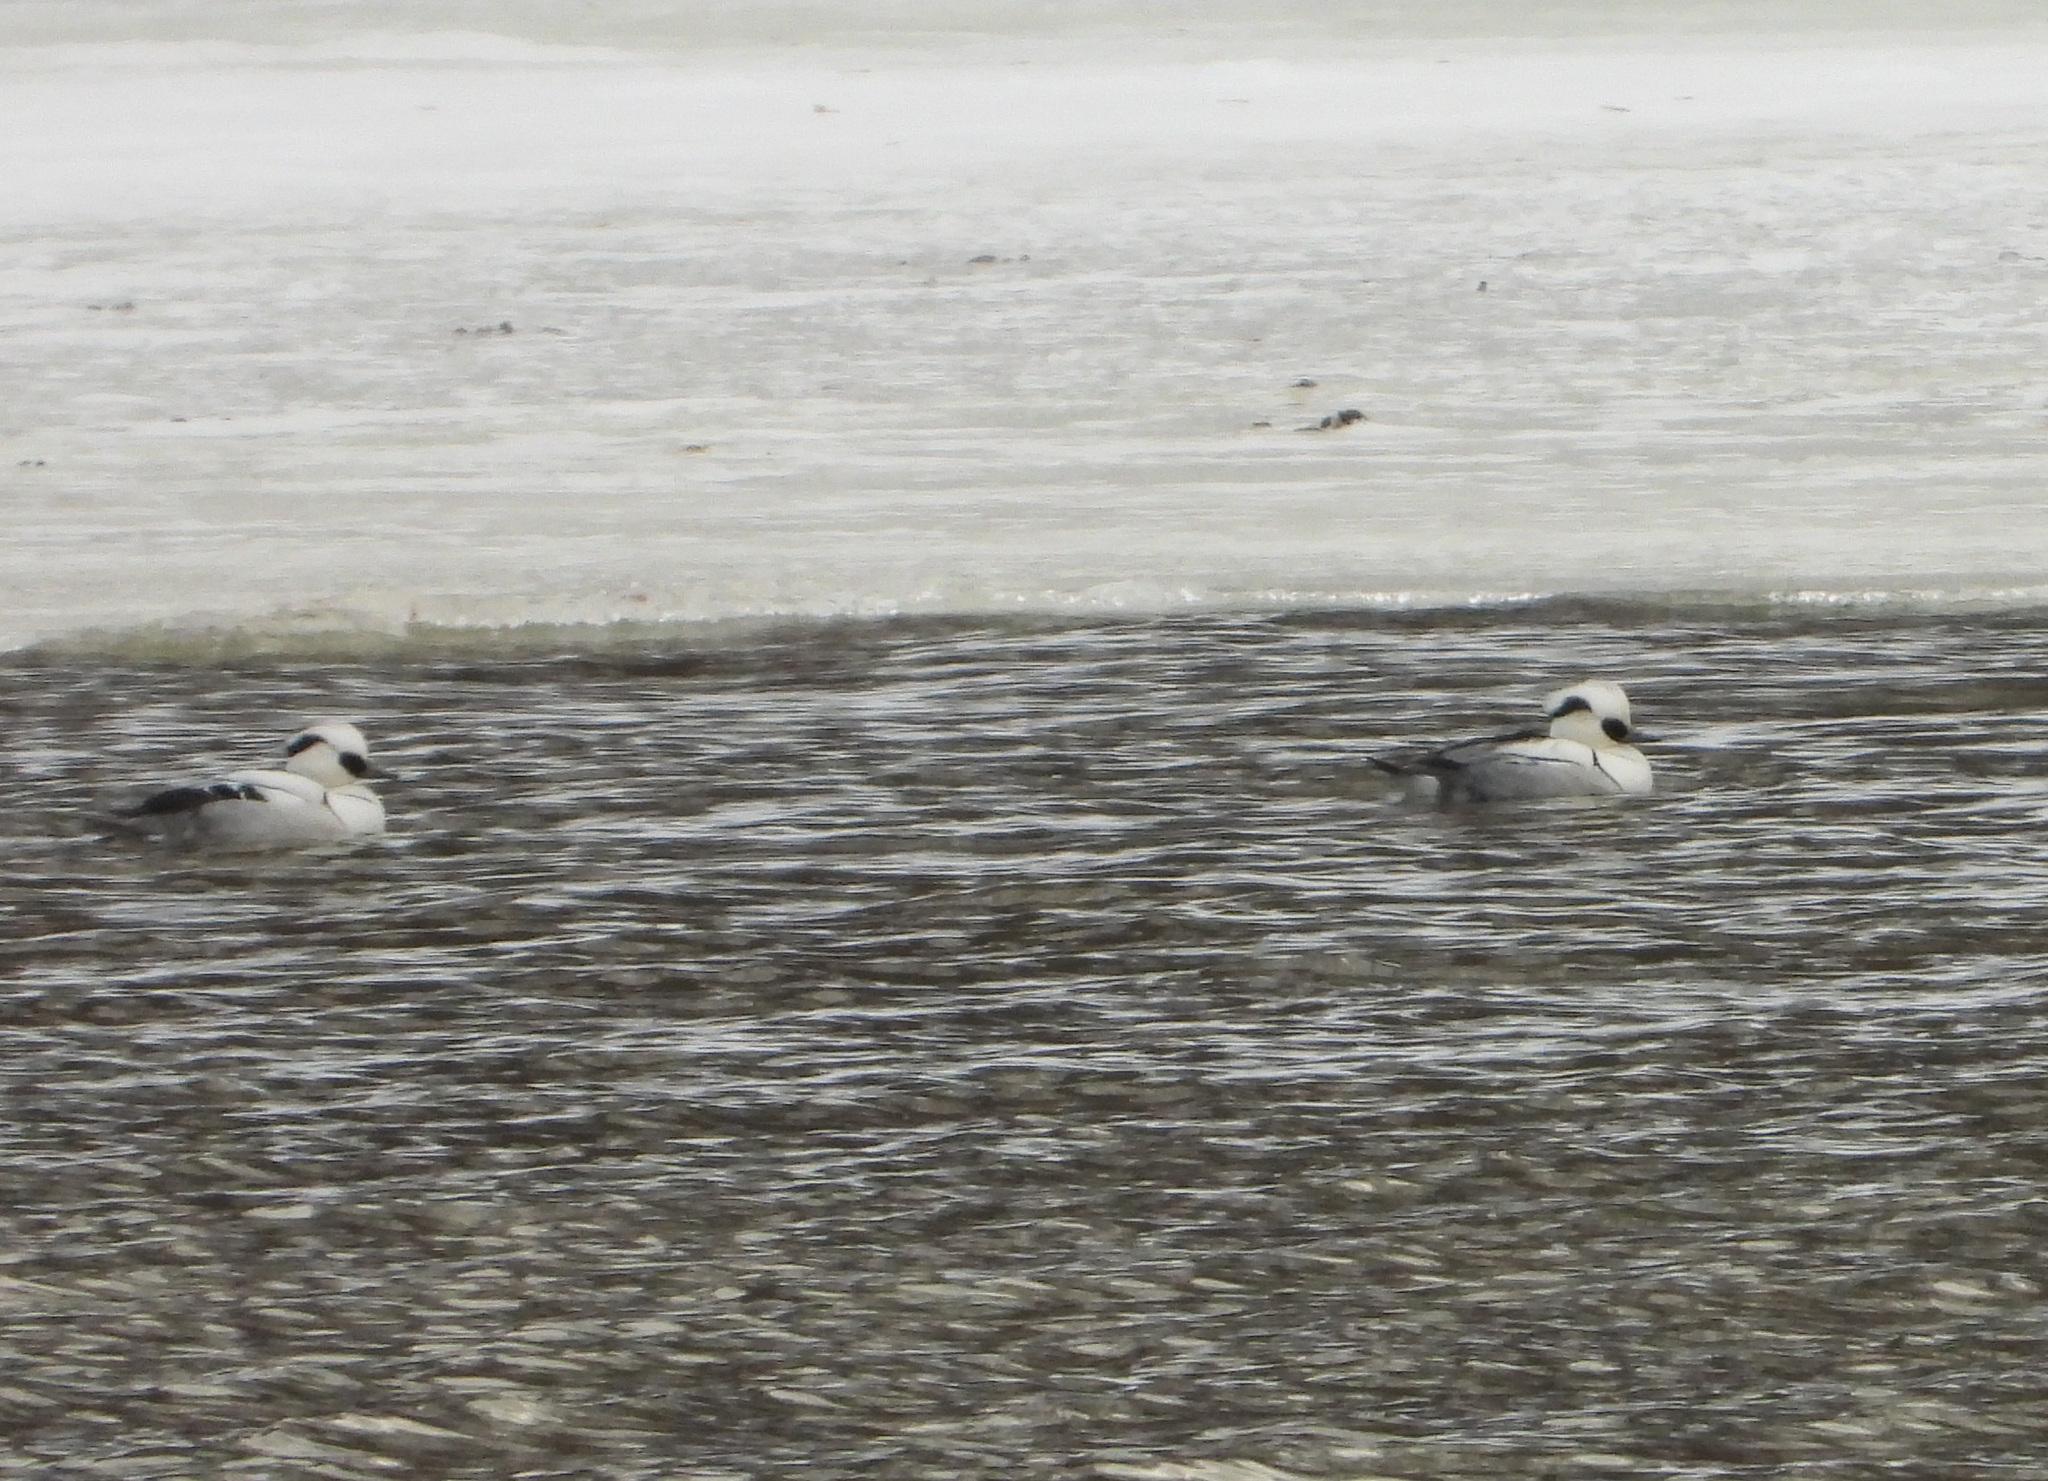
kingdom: Animalia
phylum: Chordata
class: Aves
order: Anseriformes
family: Anatidae
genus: Mergellus
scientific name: Mergellus albellus
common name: Smew
